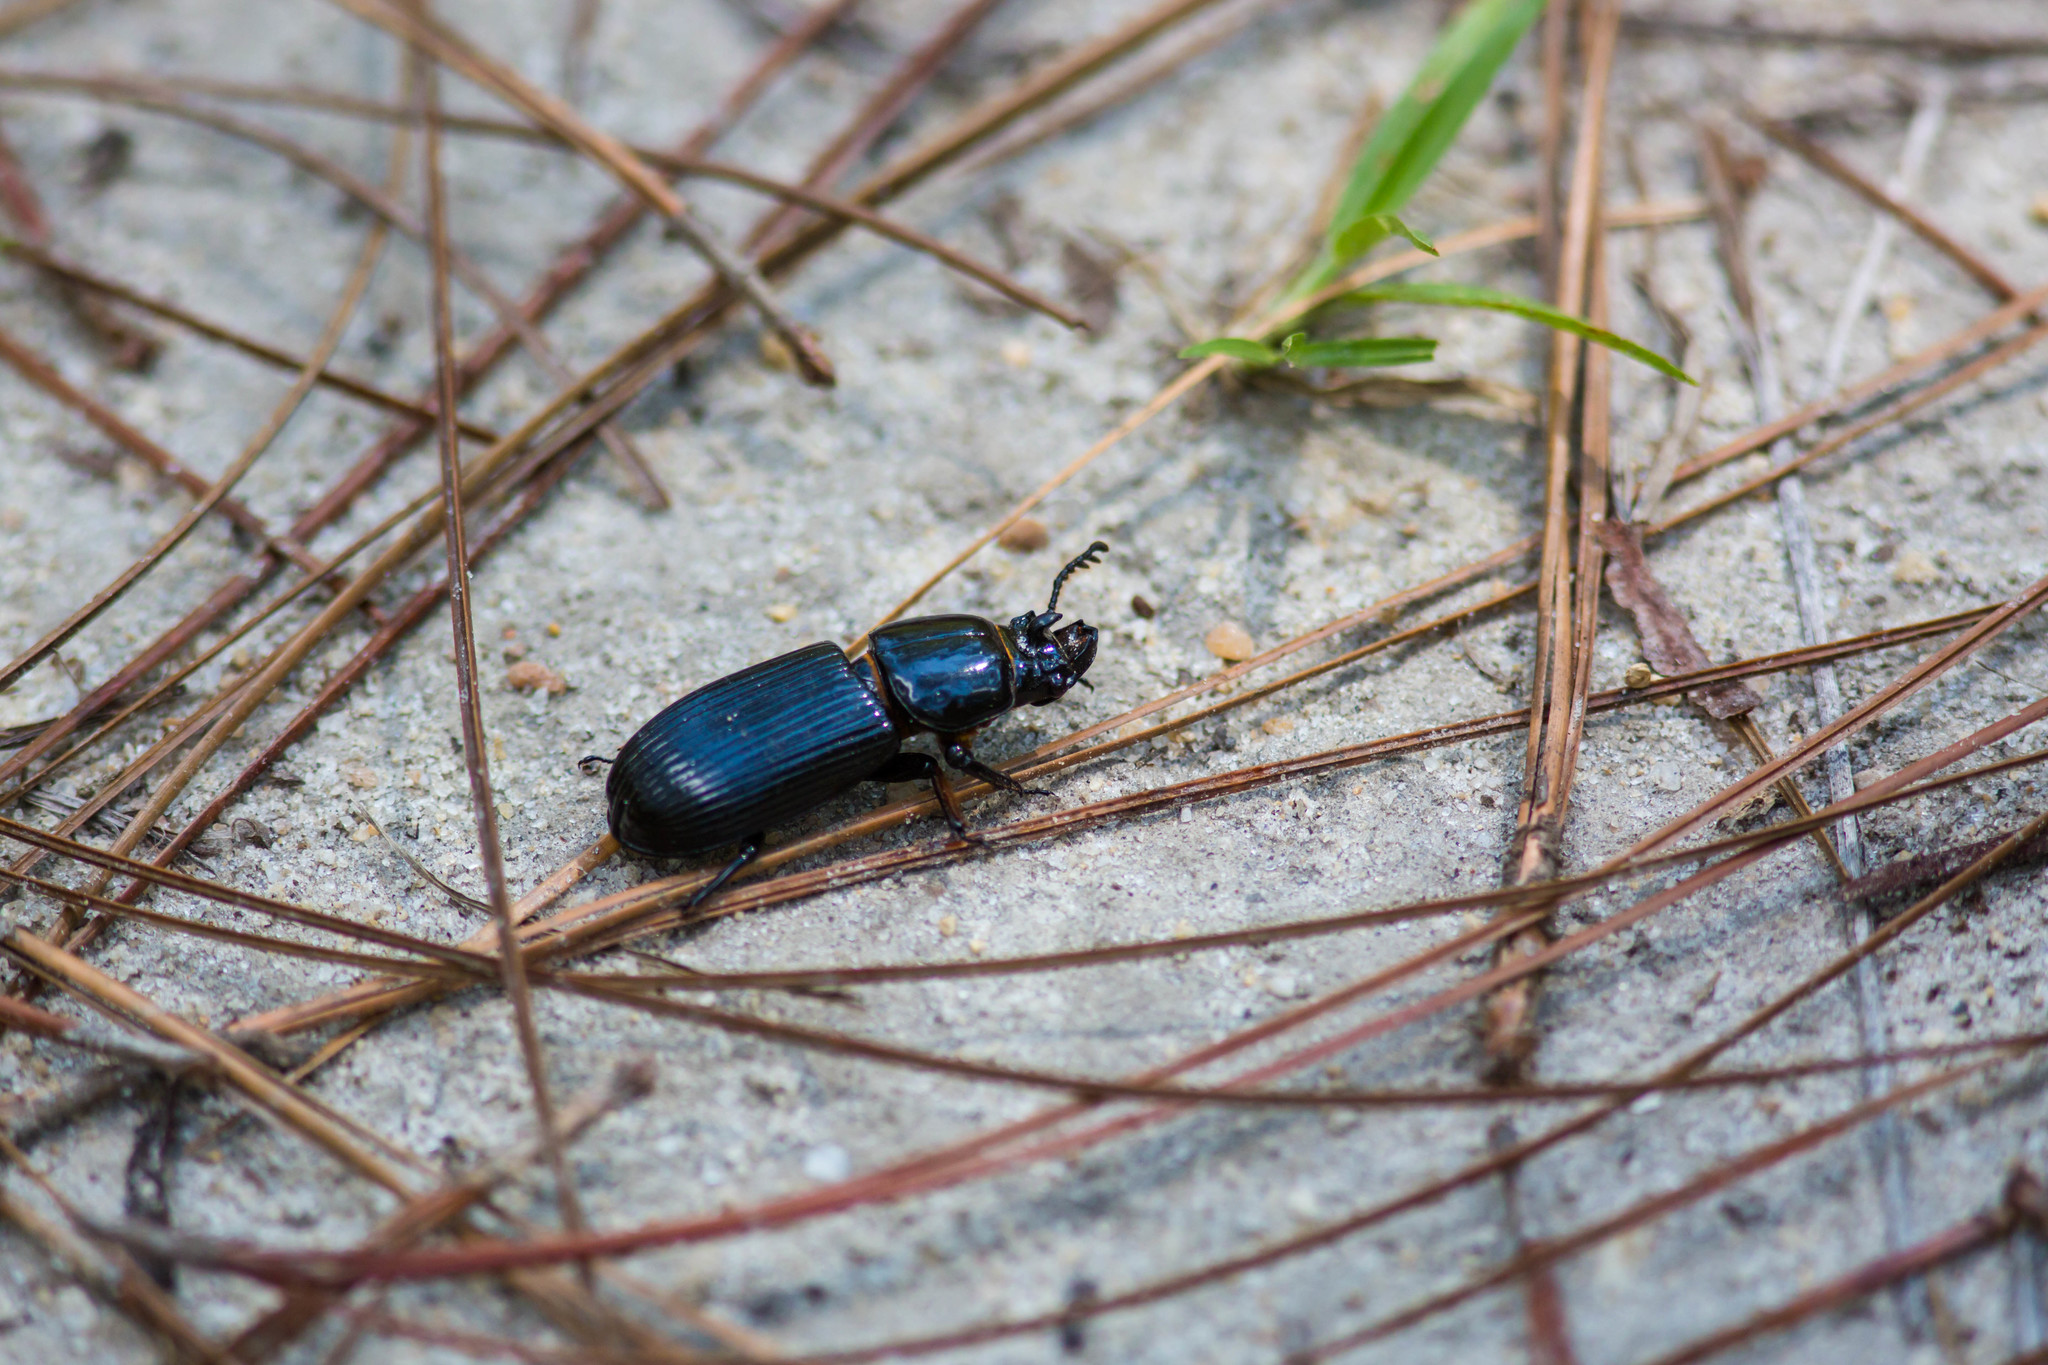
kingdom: Animalia
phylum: Arthropoda
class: Insecta
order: Coleoptera
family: Passalidae
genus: Odontotaenius
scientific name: Odontotaenius disjunctus
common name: Patent leather beetle
